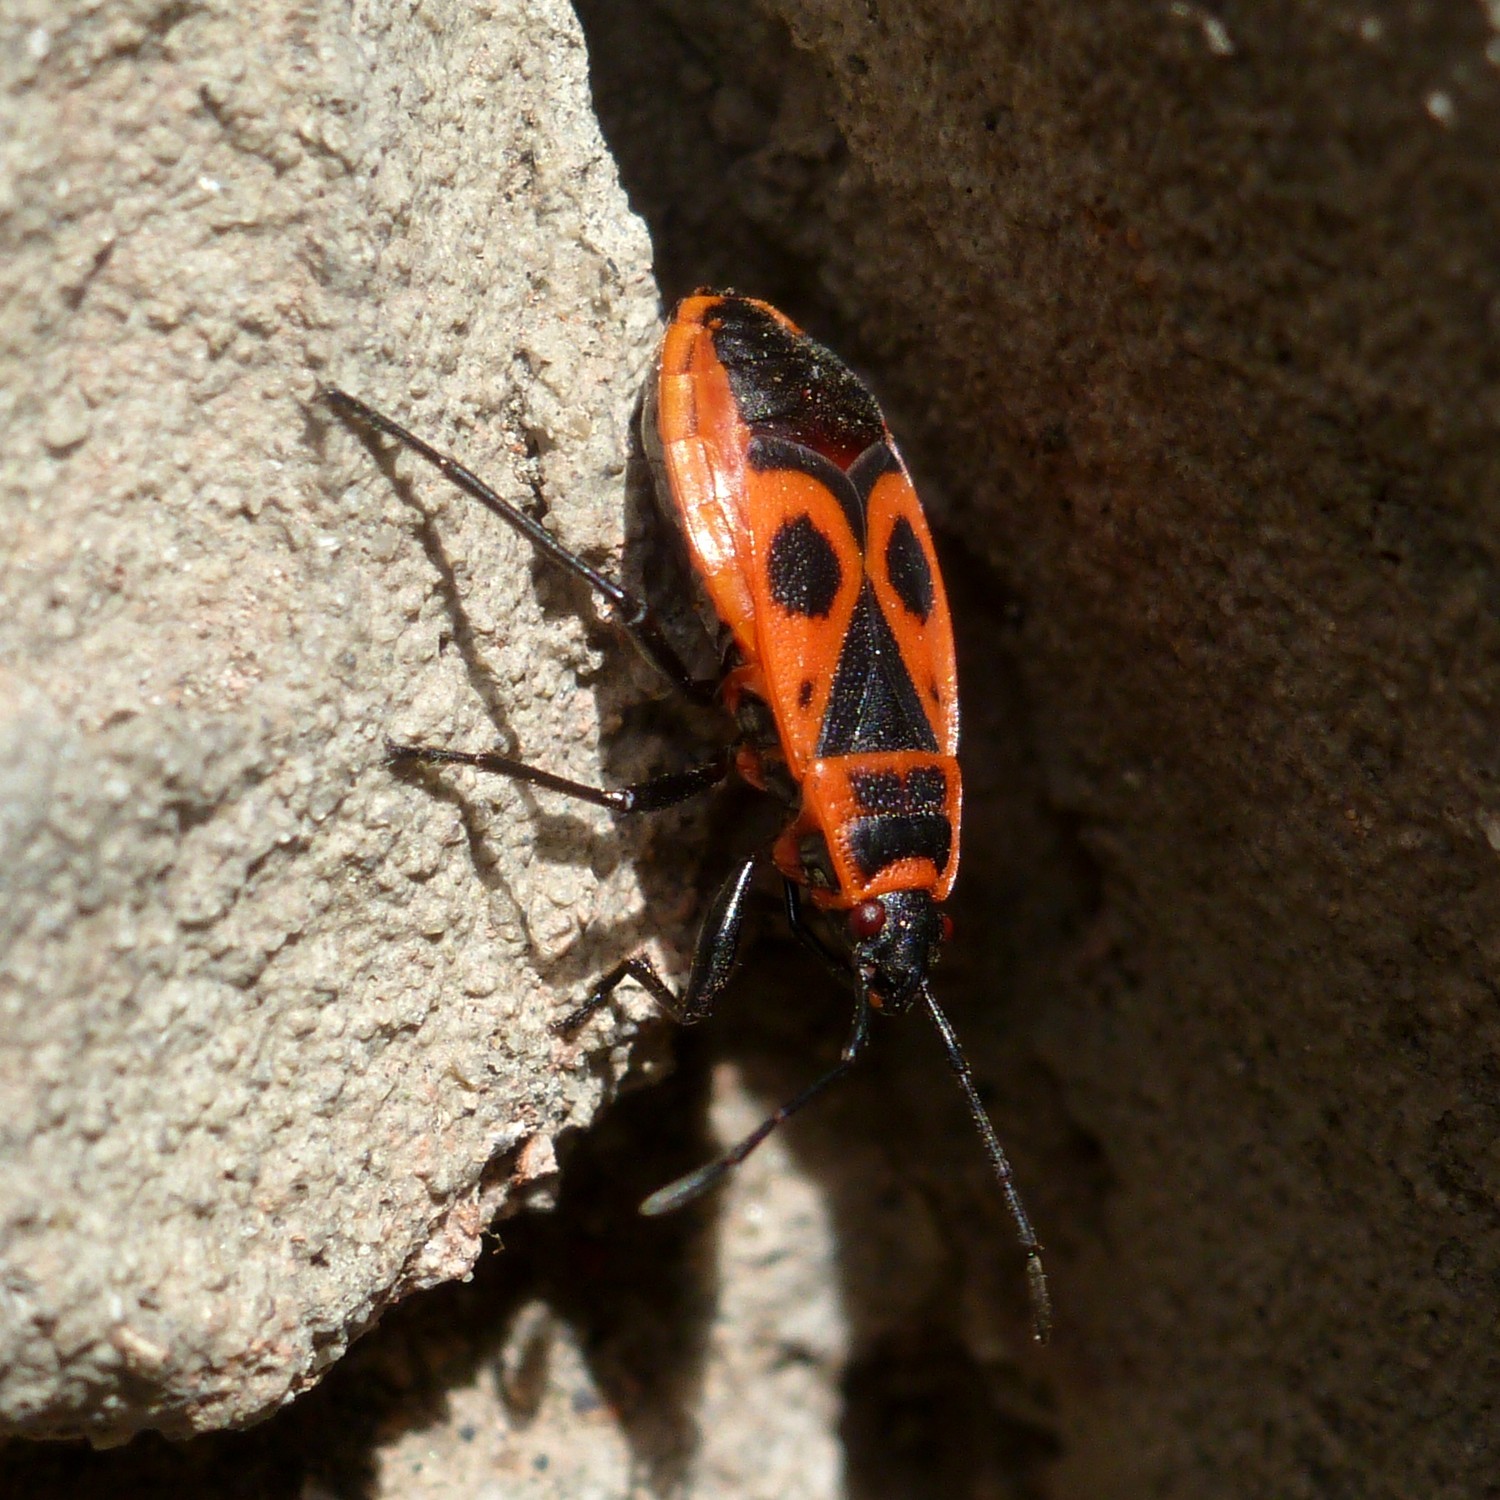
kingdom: Animalia
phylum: Arthropoda
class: Insecta
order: Hemiptera
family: Pyrrhocoridae
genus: Pyrrhocoris
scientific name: Pyrrhocoris apterus
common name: Firebug
